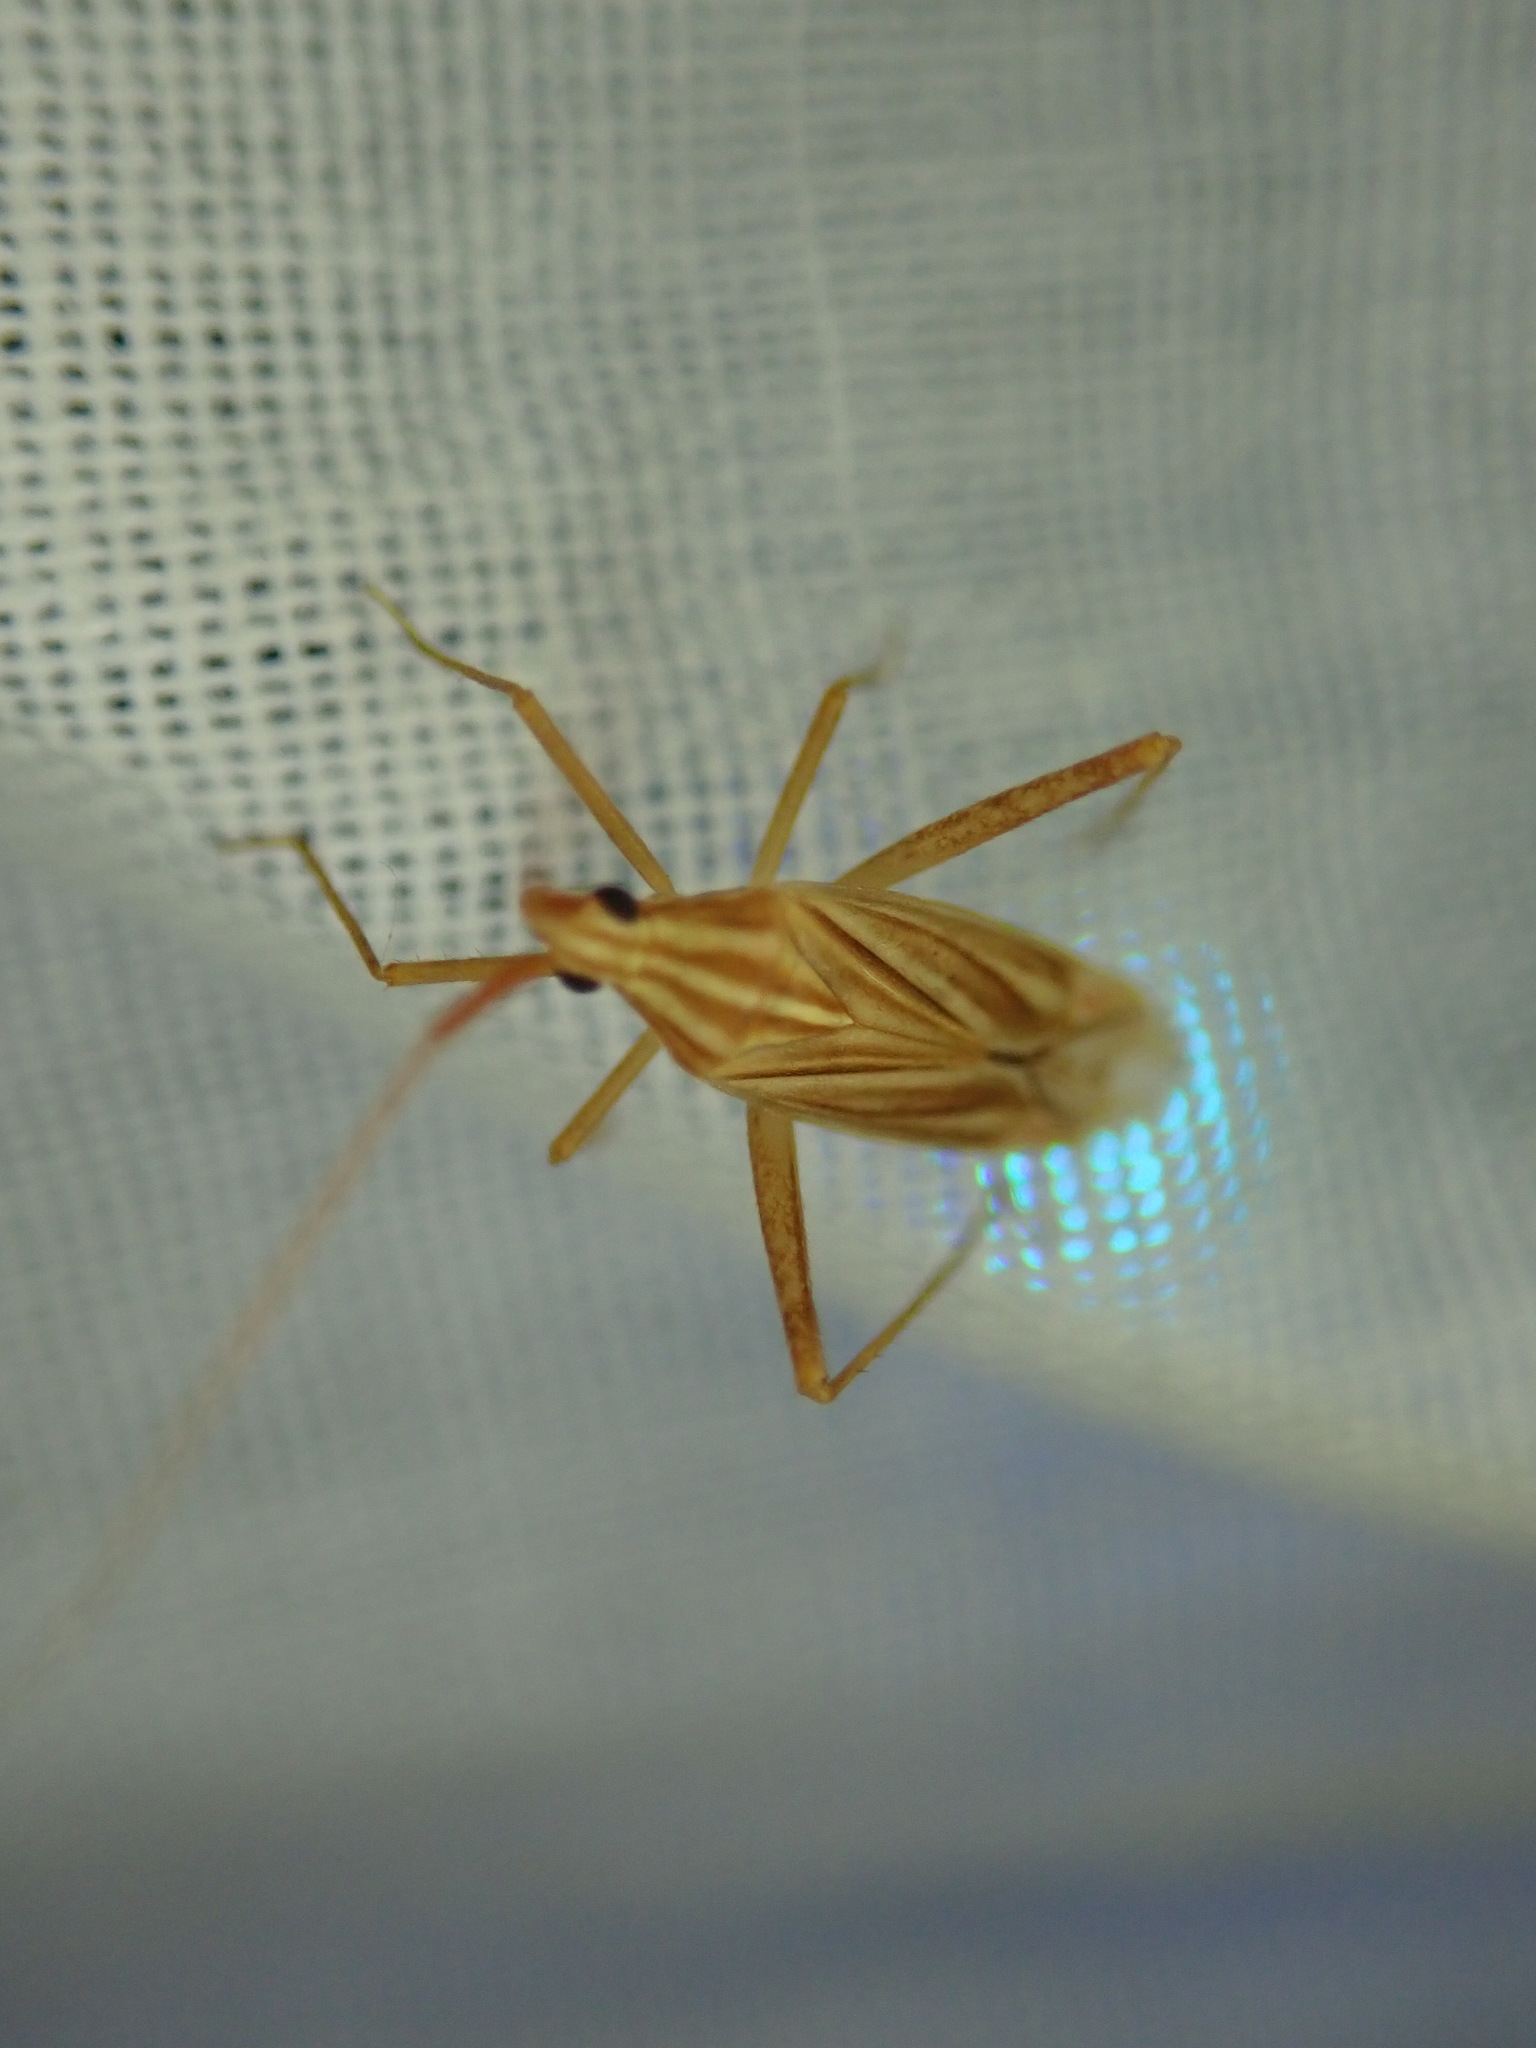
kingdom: Animalia
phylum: Arthropoda
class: Insecta
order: Hemiptera
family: Miridae
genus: Miridius
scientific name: Miridius quadrivirgatus
